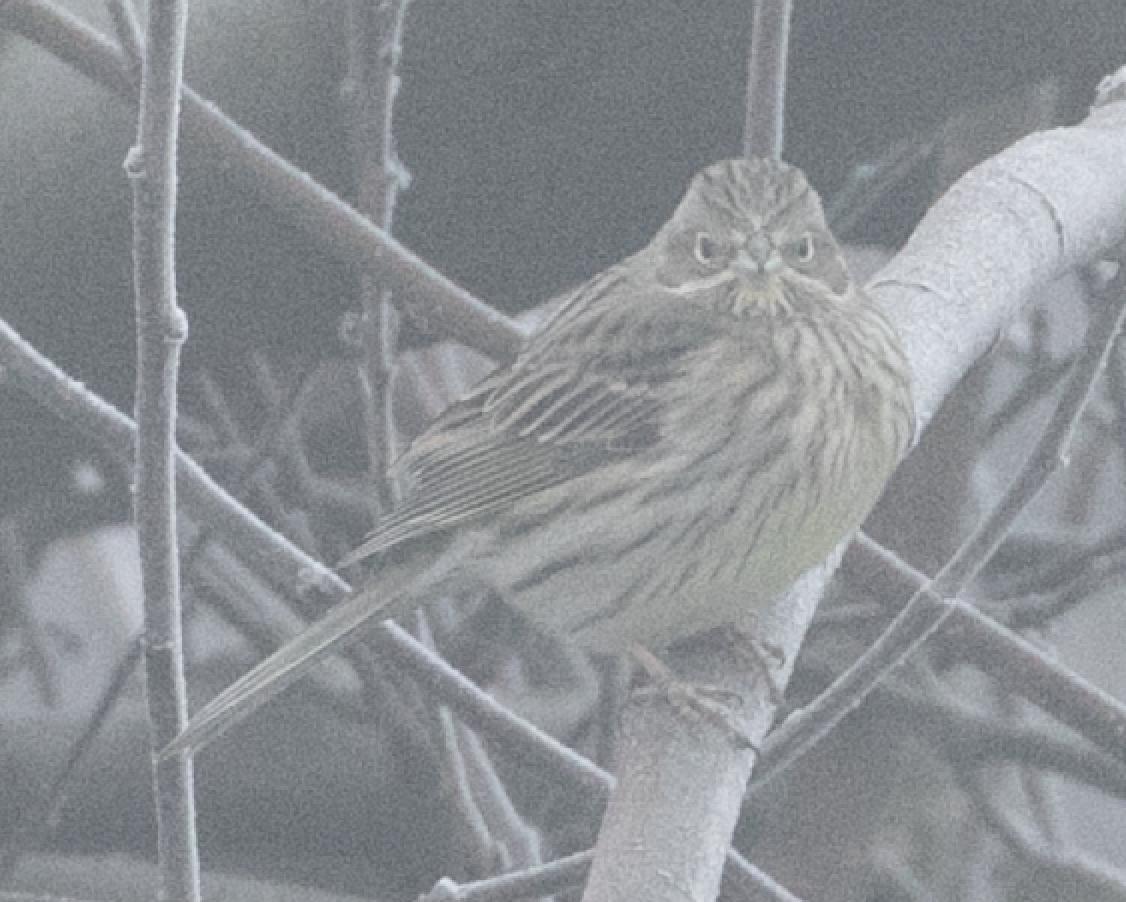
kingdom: Animalia
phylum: Chordata
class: Aves
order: Passeriformes
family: Emberizidae
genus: Emberiza
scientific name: Emberiza citrinella
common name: Yellowhammer
